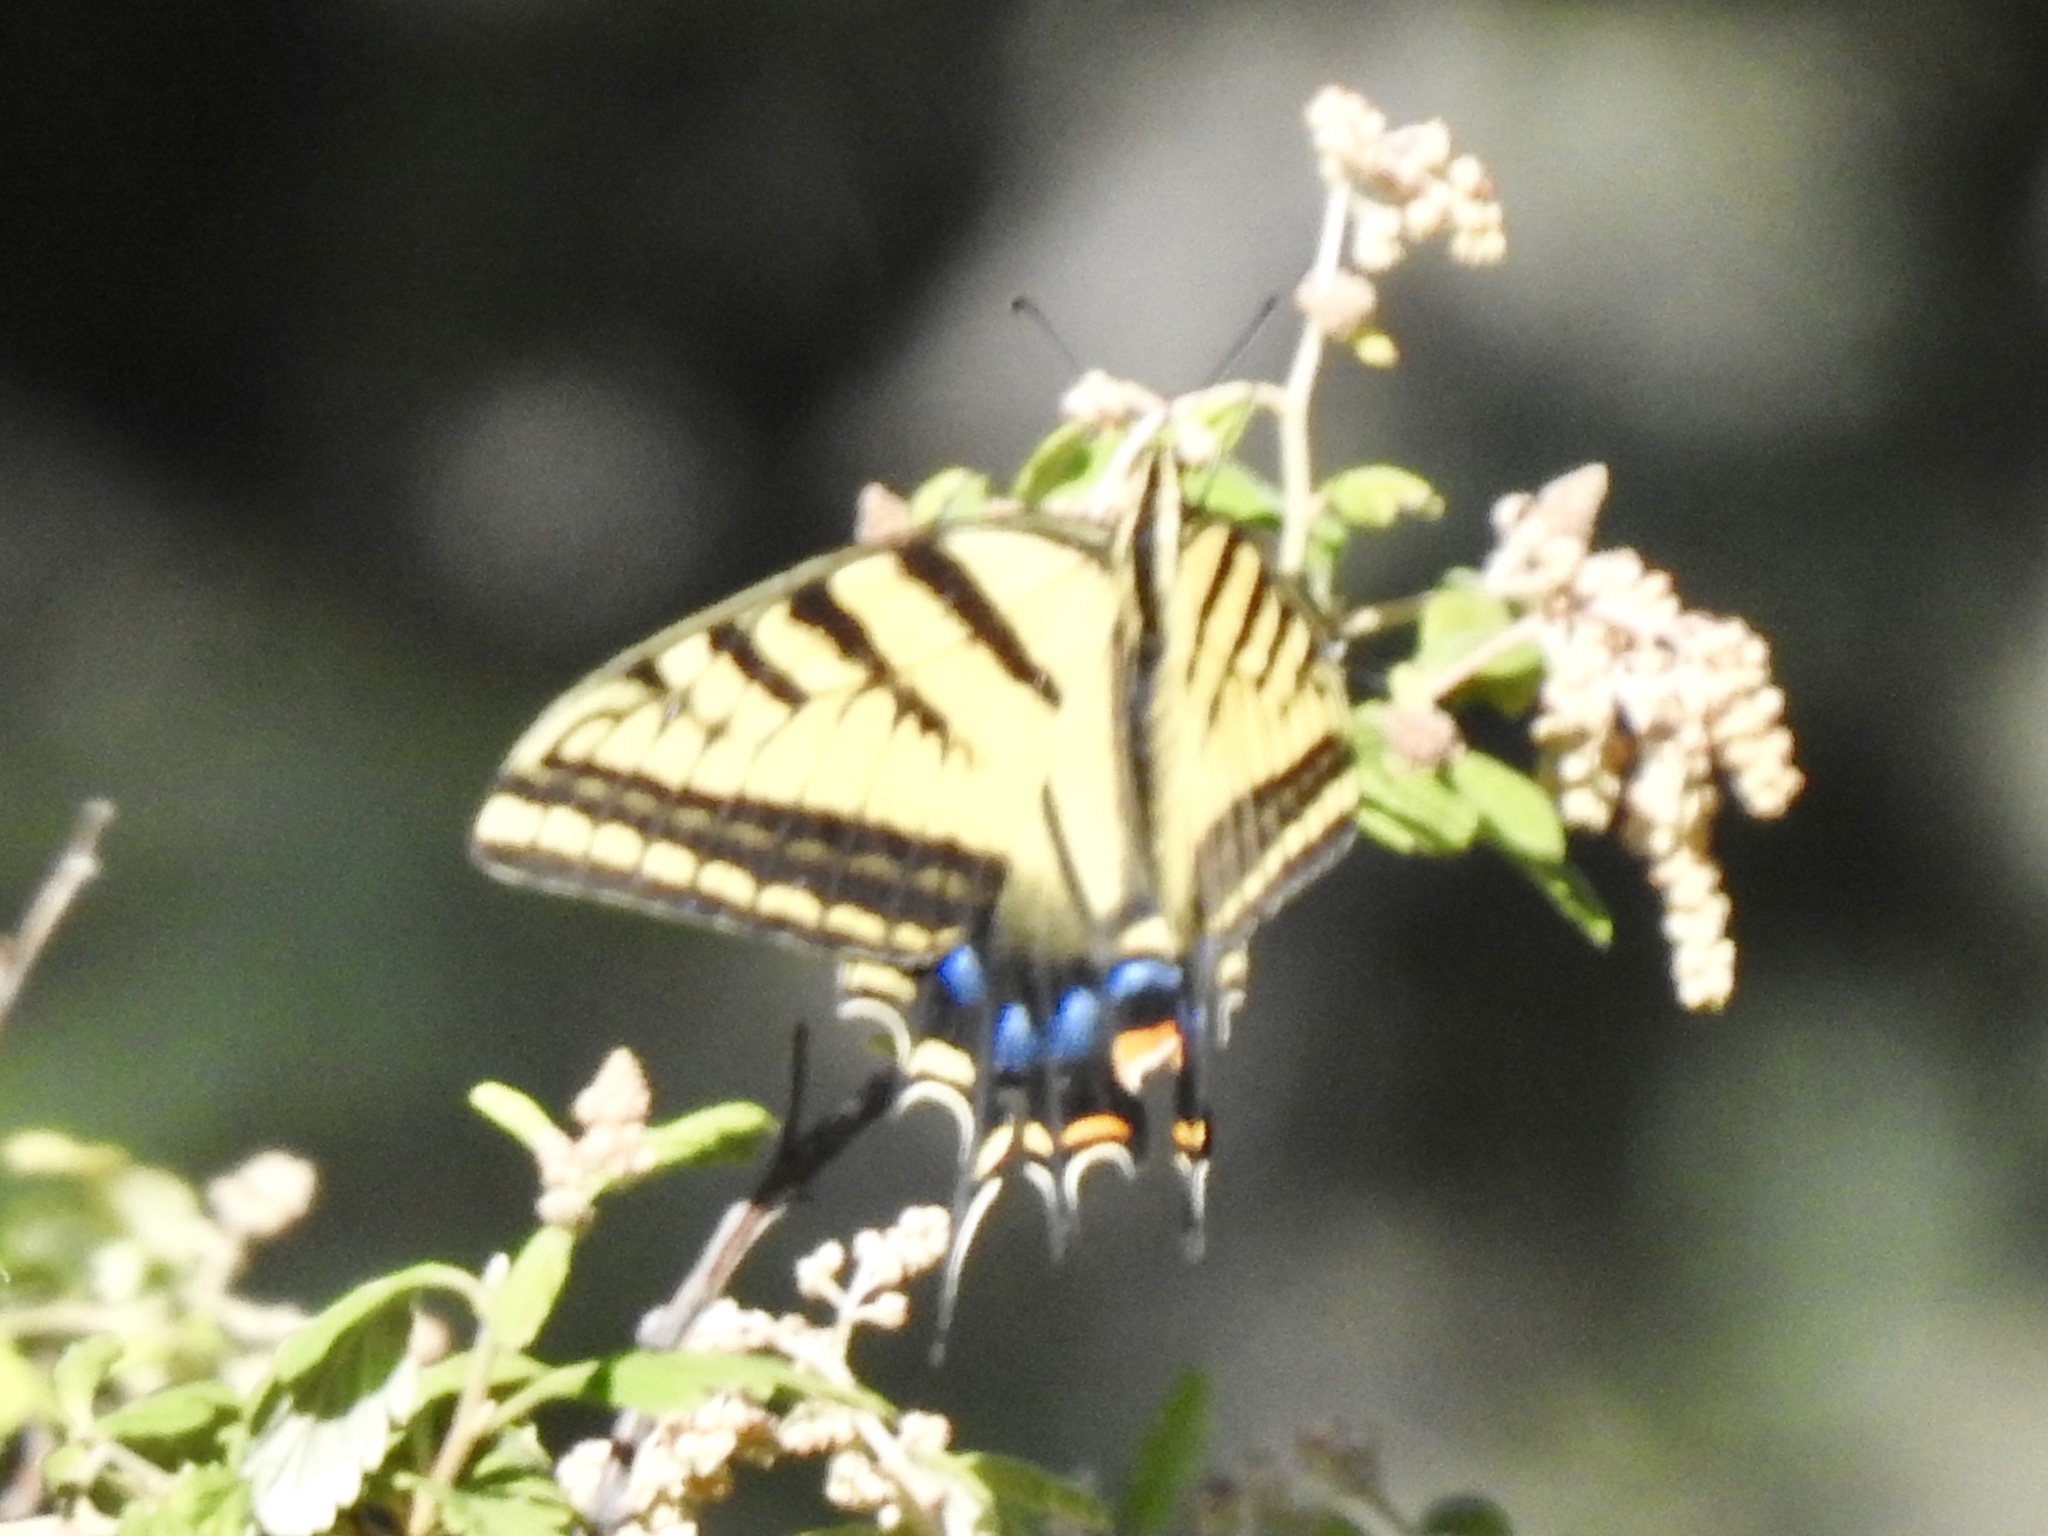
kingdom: Animalia
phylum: Arthropoda
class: Insecta
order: Lepidoptera
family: Papilionidae
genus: Papilio
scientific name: Papilio multicaudata
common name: Two-tailed tiger swallowtail
